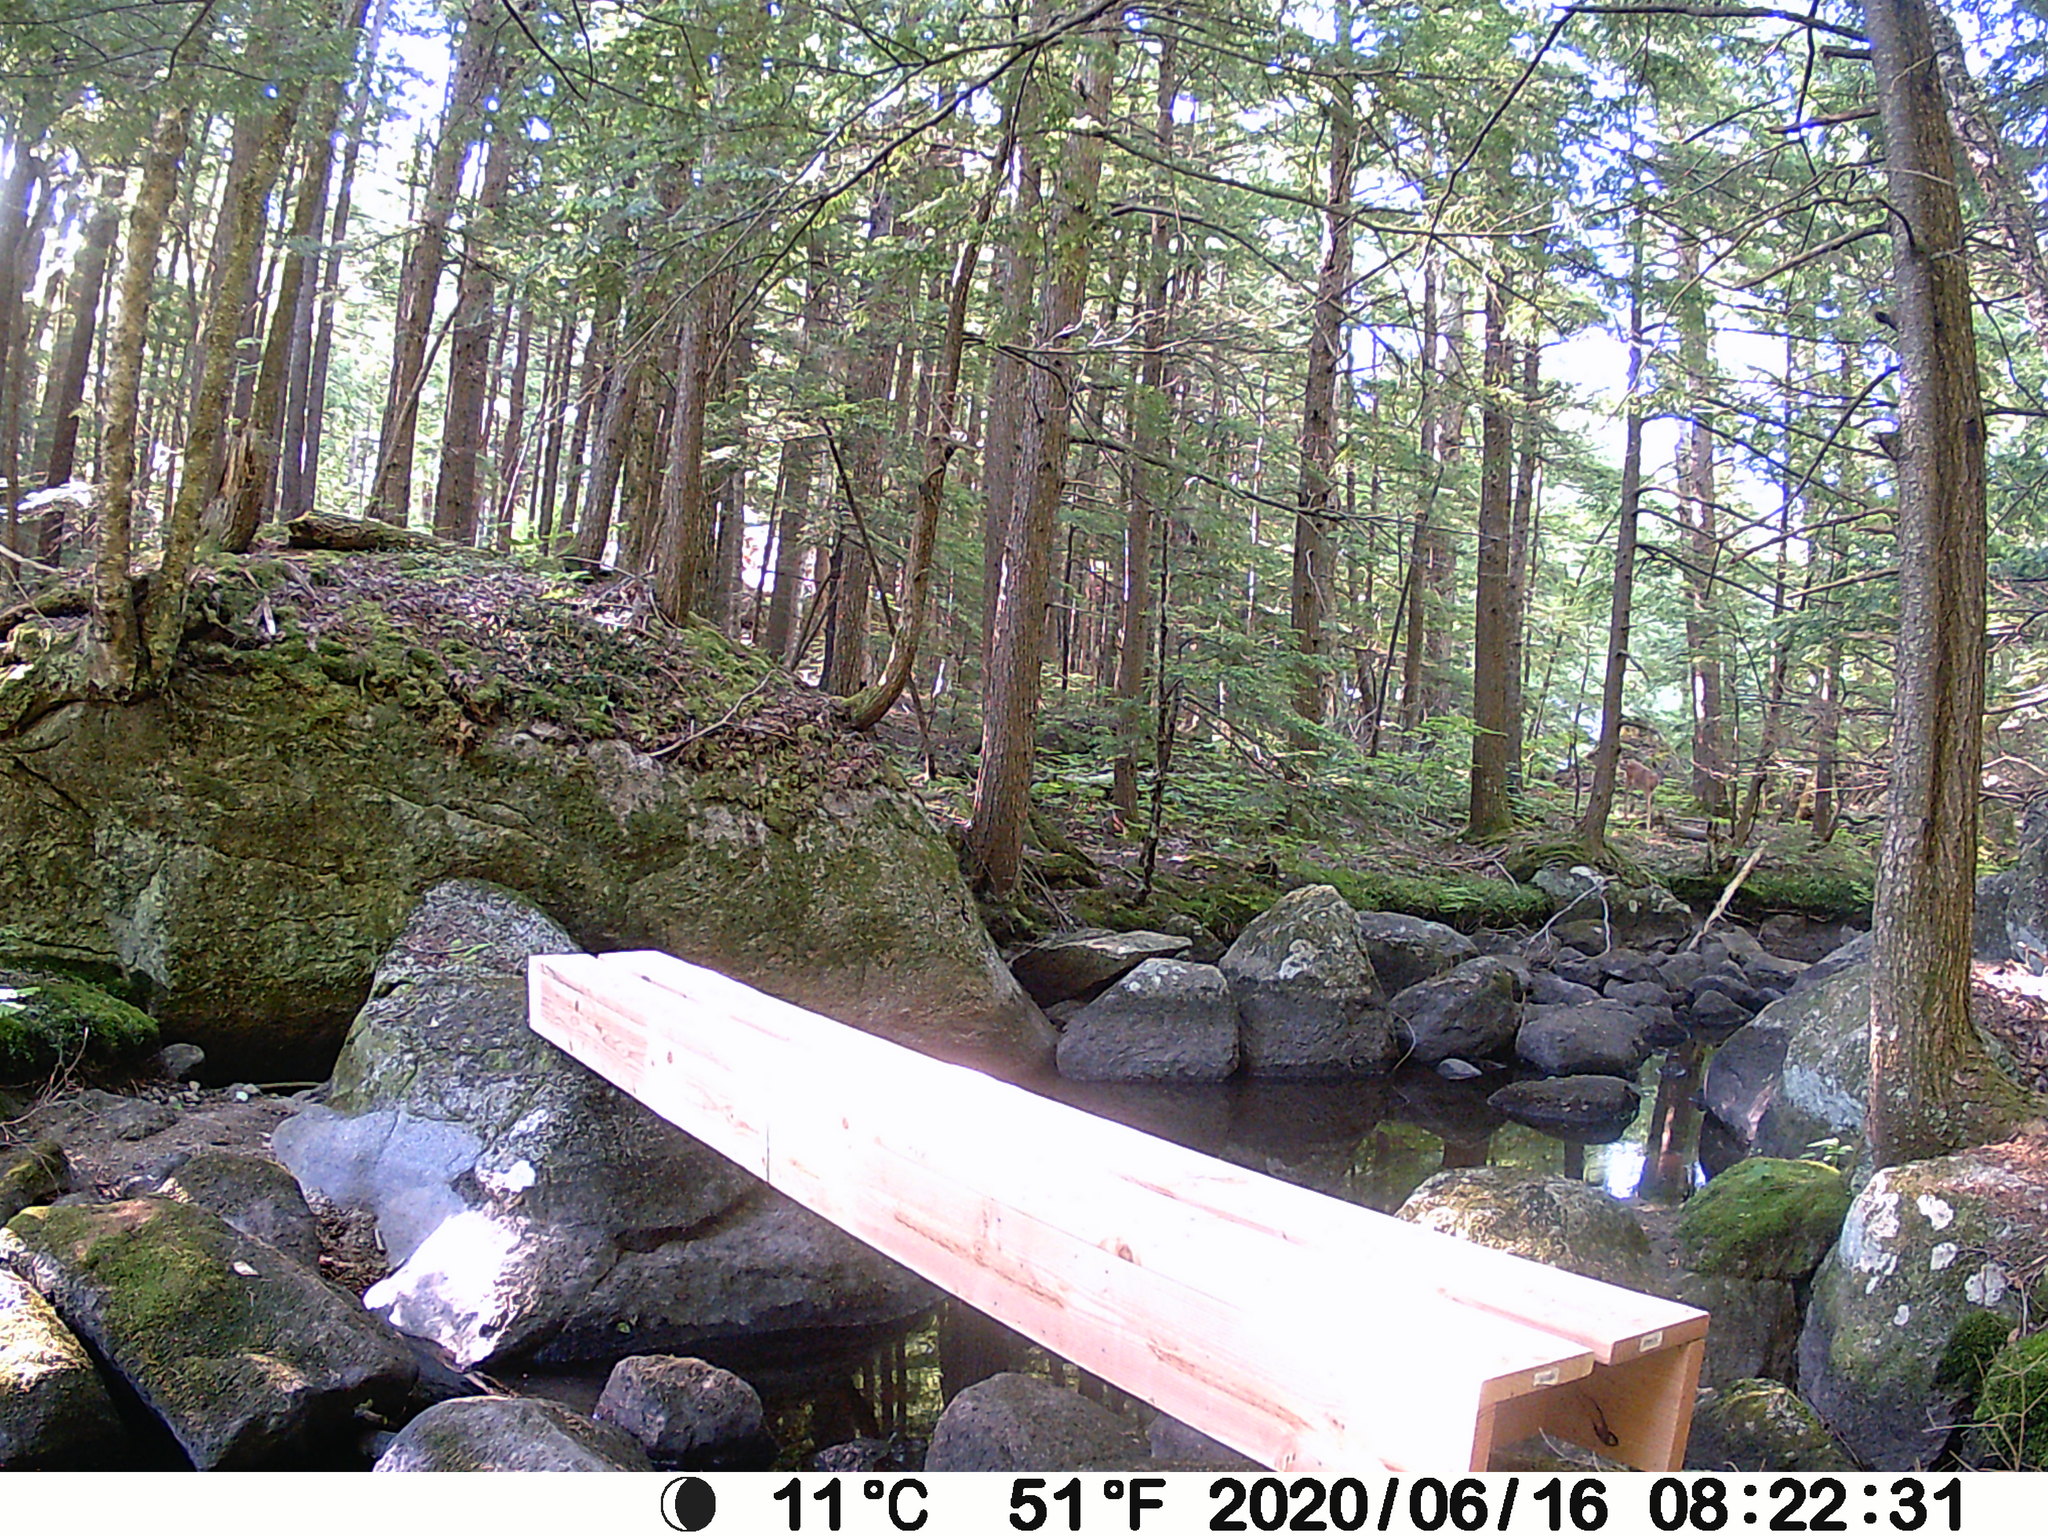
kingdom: Animalia
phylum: Chordata
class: Mammalia
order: Artiodactyla
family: Cervidae
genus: Odocoileus
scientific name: Odocoileus virginianus
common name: White-tailed deer
